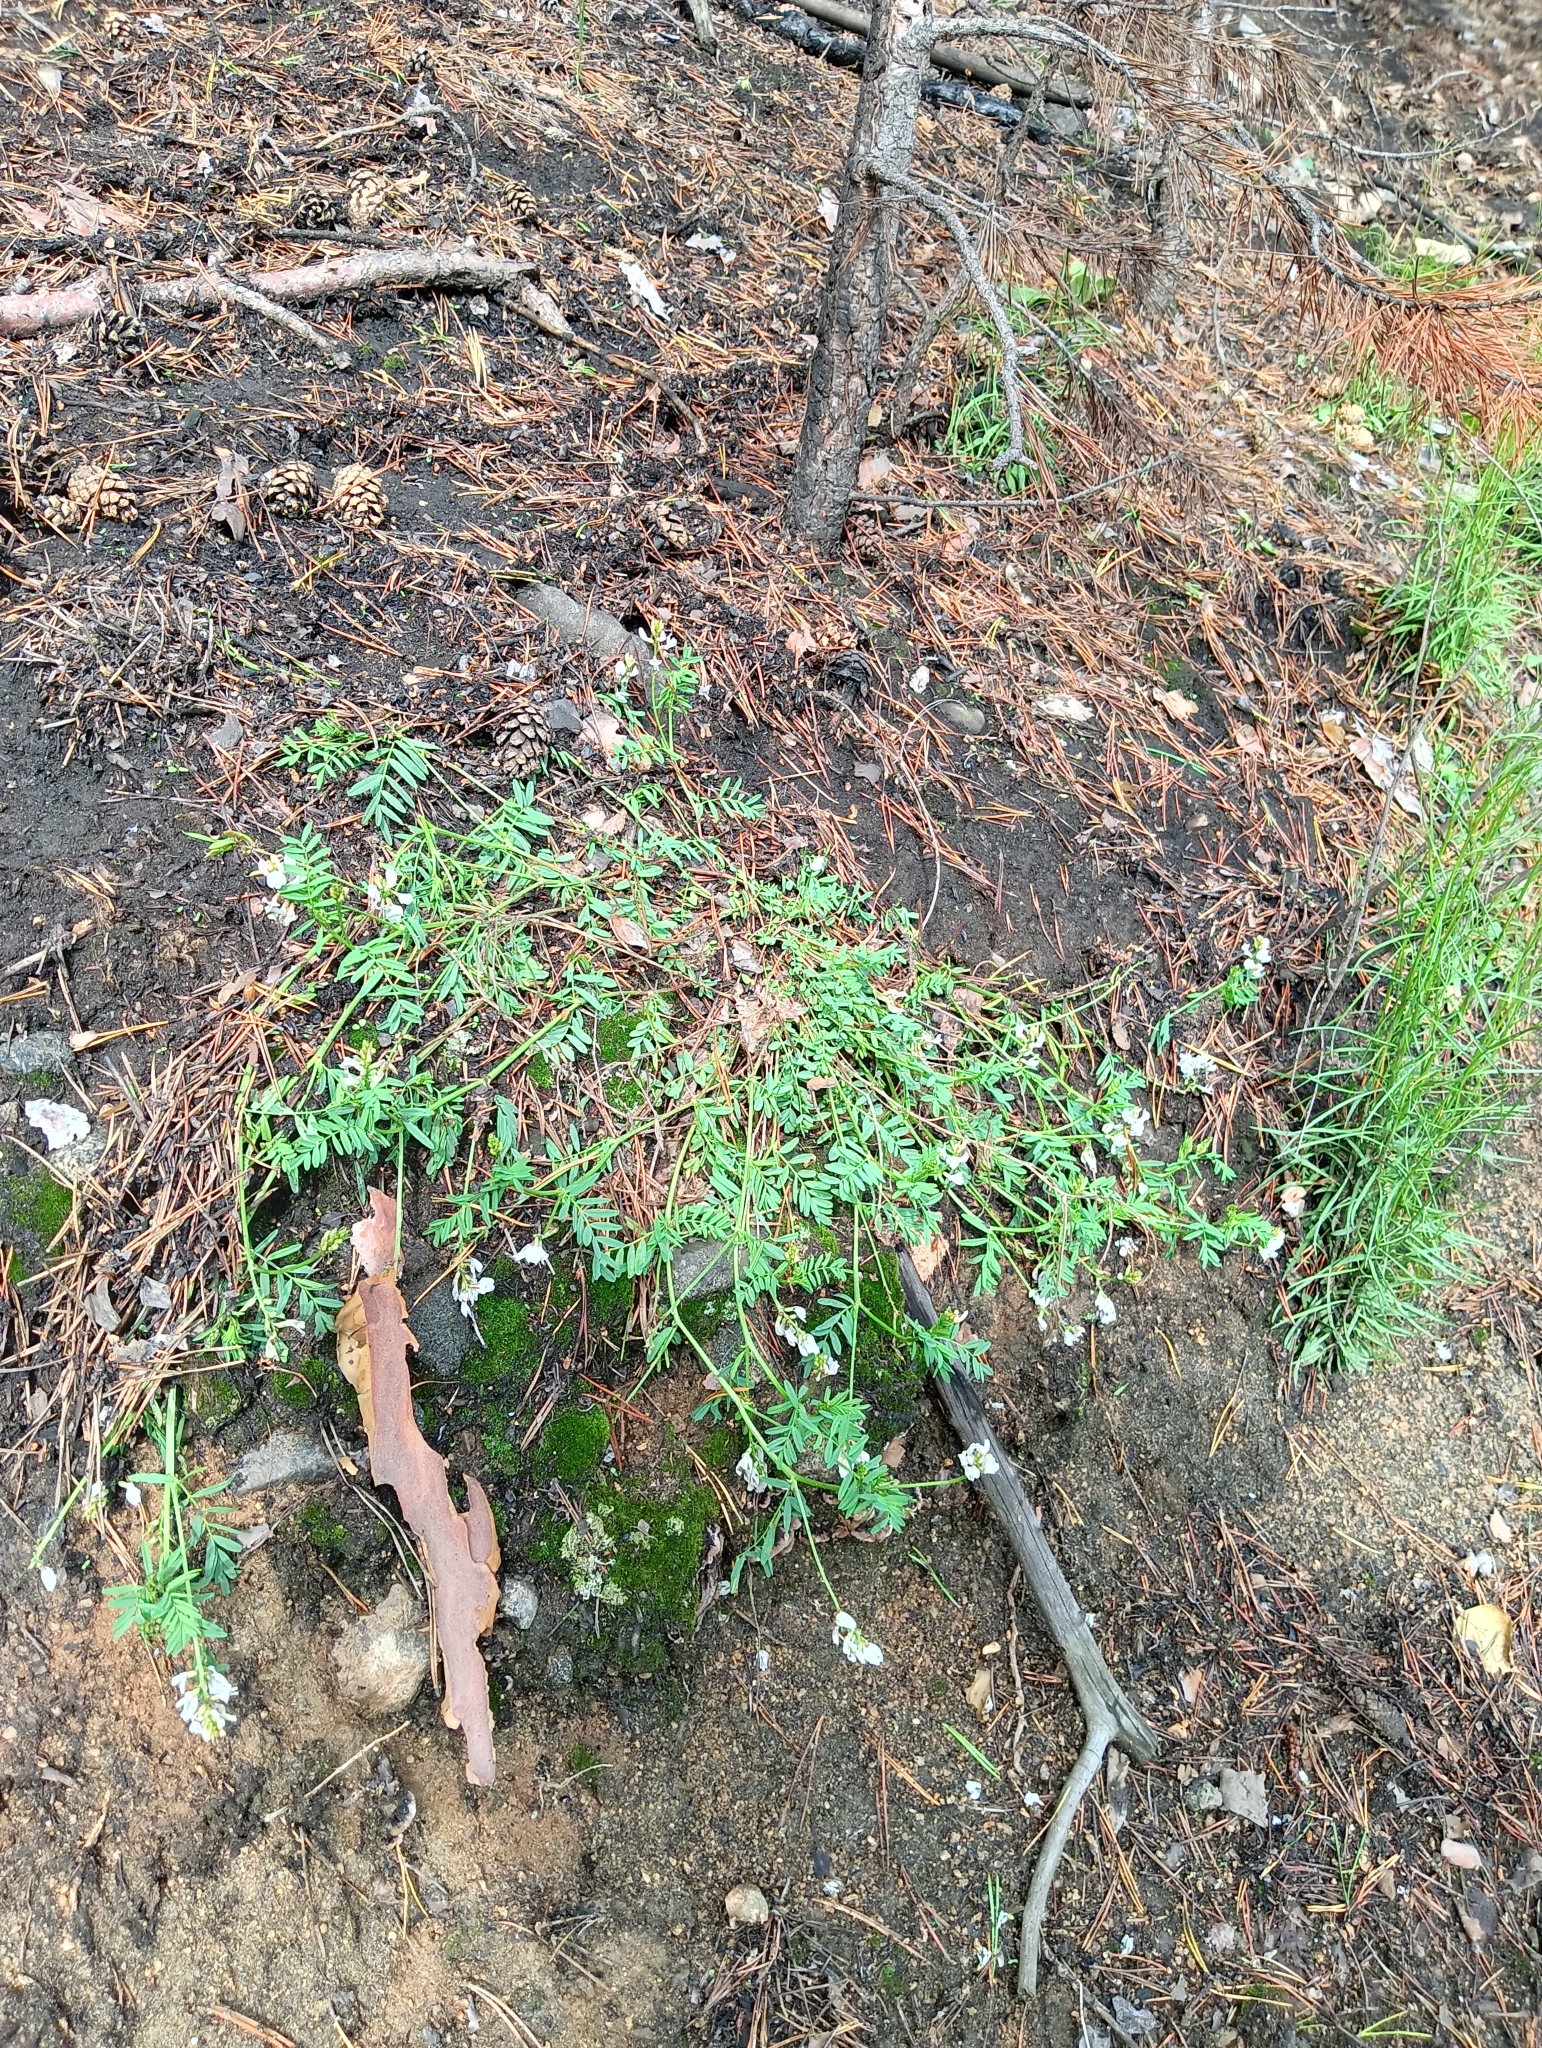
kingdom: Plantae
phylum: Tracheophyta
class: Magnoliopsida
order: Fabales
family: Fabaceae
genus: Astragalus
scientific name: Astragalus clerceanus
